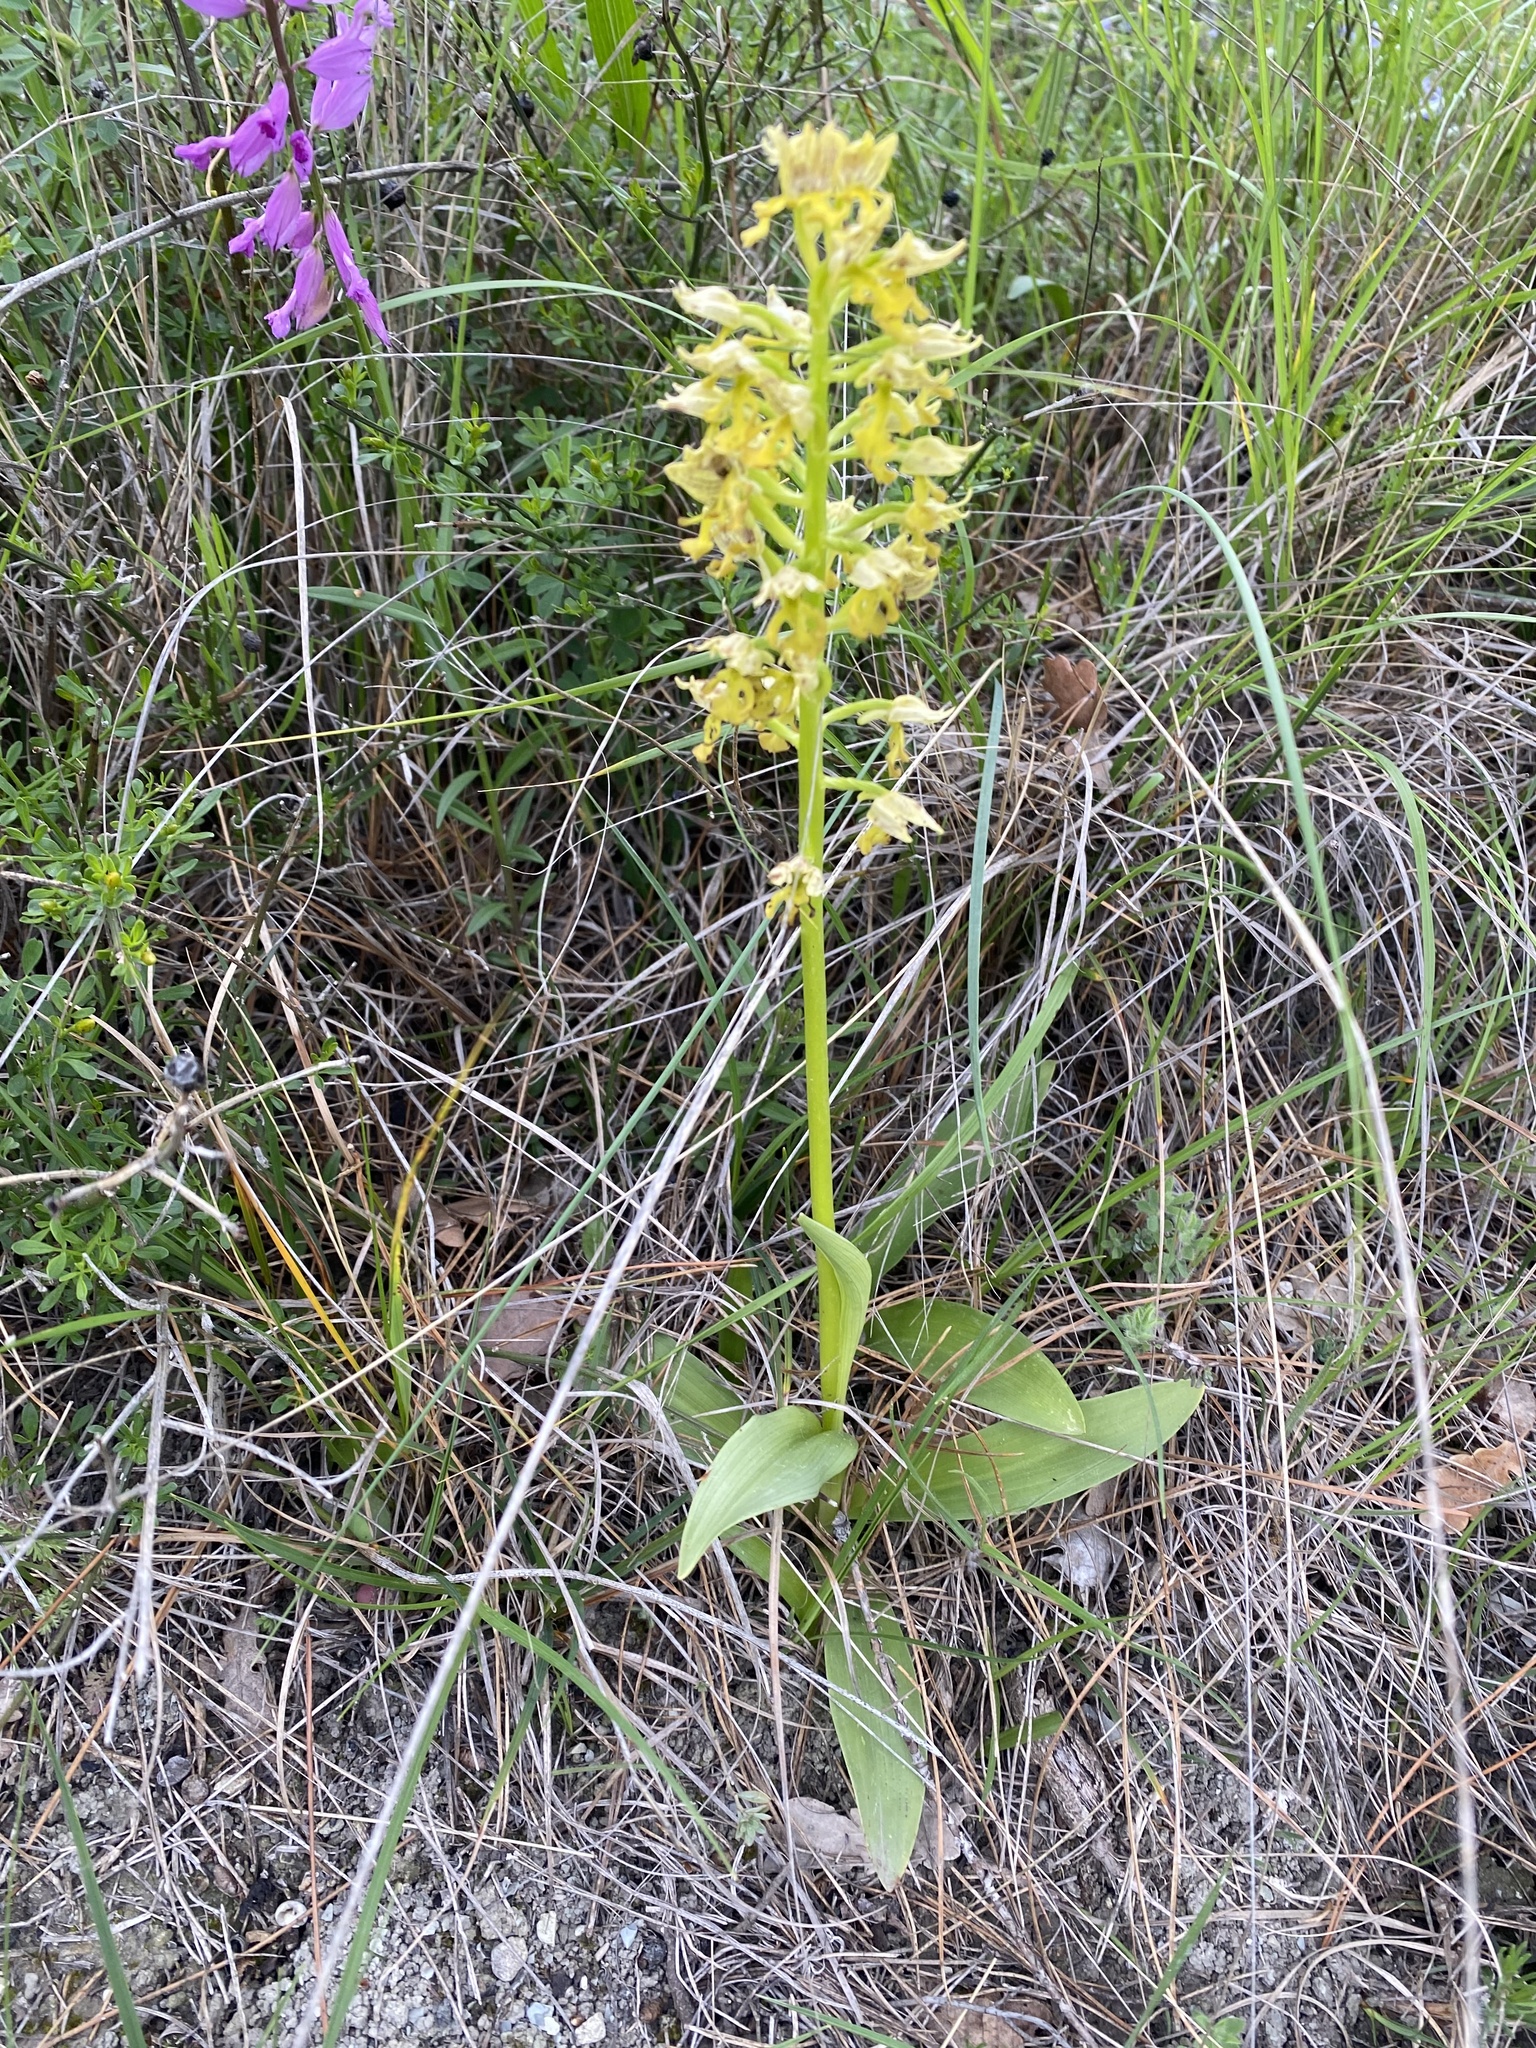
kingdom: Plantae
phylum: Tracheophyta
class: Liliopsida
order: Asparagales
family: Orchidaceae
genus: Orchis
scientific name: Orchis punctulata
